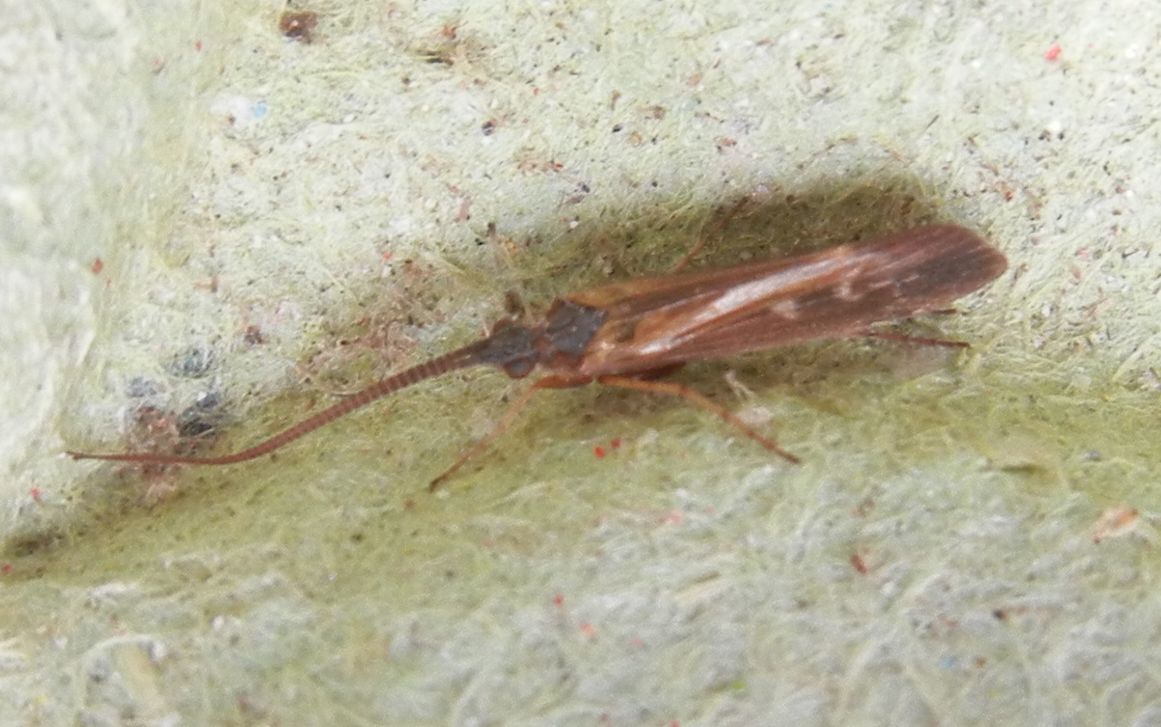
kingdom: Animalia
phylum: Arthropoda
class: Insecta
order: Trichoptera
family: Limnephilidae
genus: Limnephilus
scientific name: Limnephilus auricula
